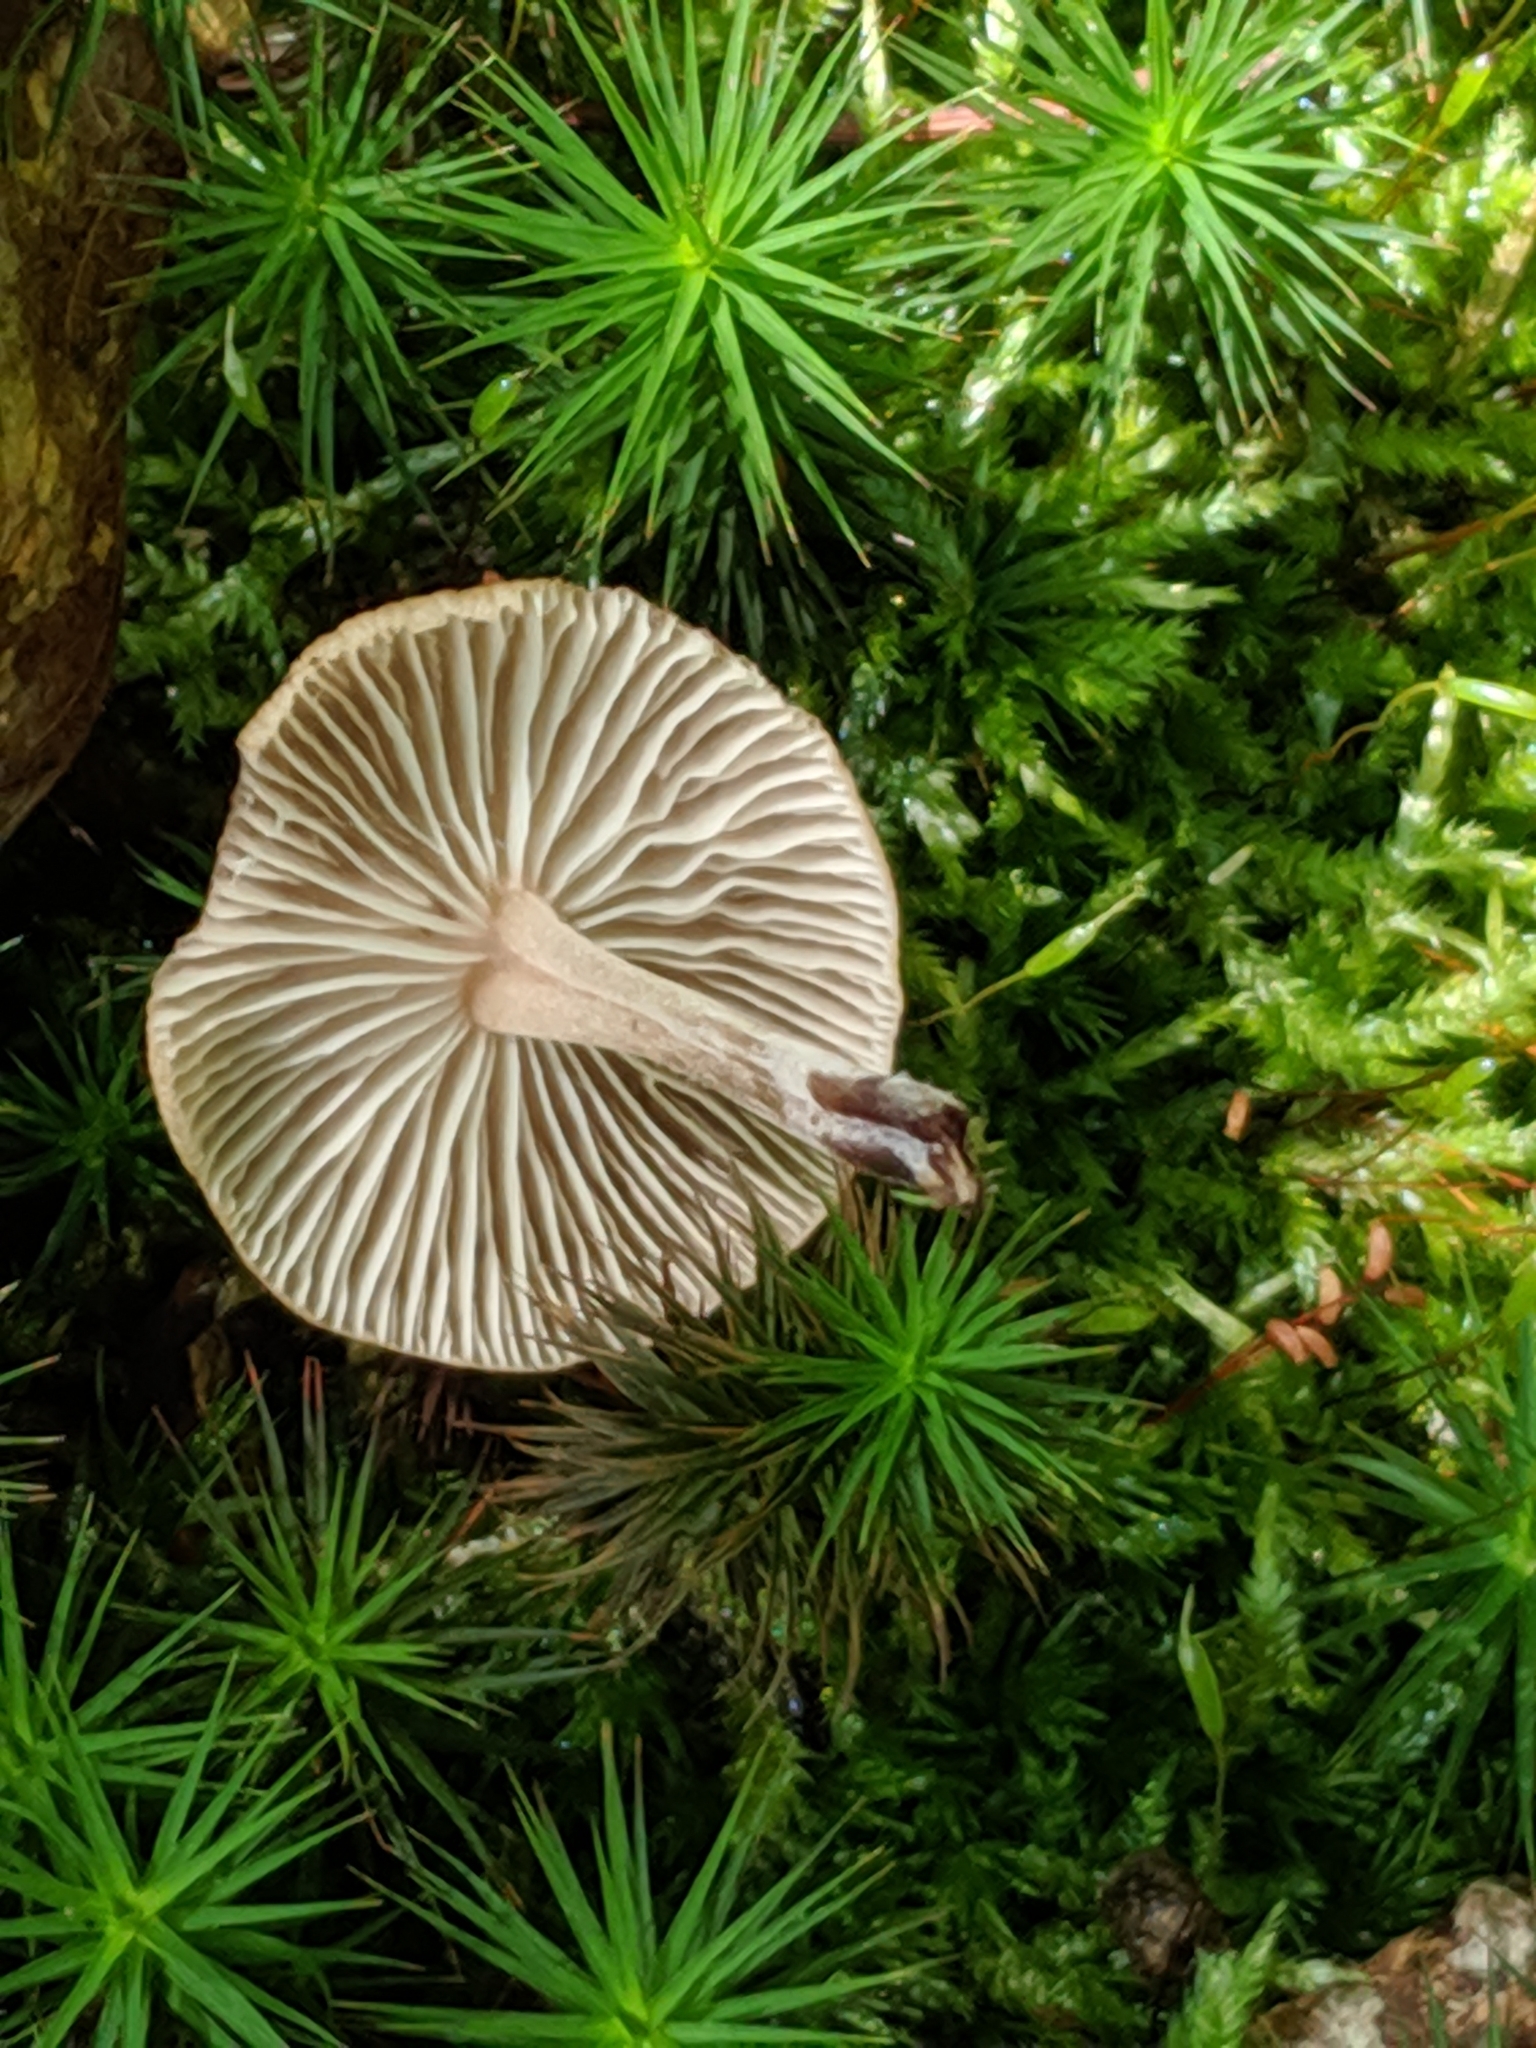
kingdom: Fungi
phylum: Basidiomycota
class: Agaricomycetes
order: Agaricales
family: Omphalotaceae
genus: Collybiopsis
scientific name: Collybiopsis subnuda
